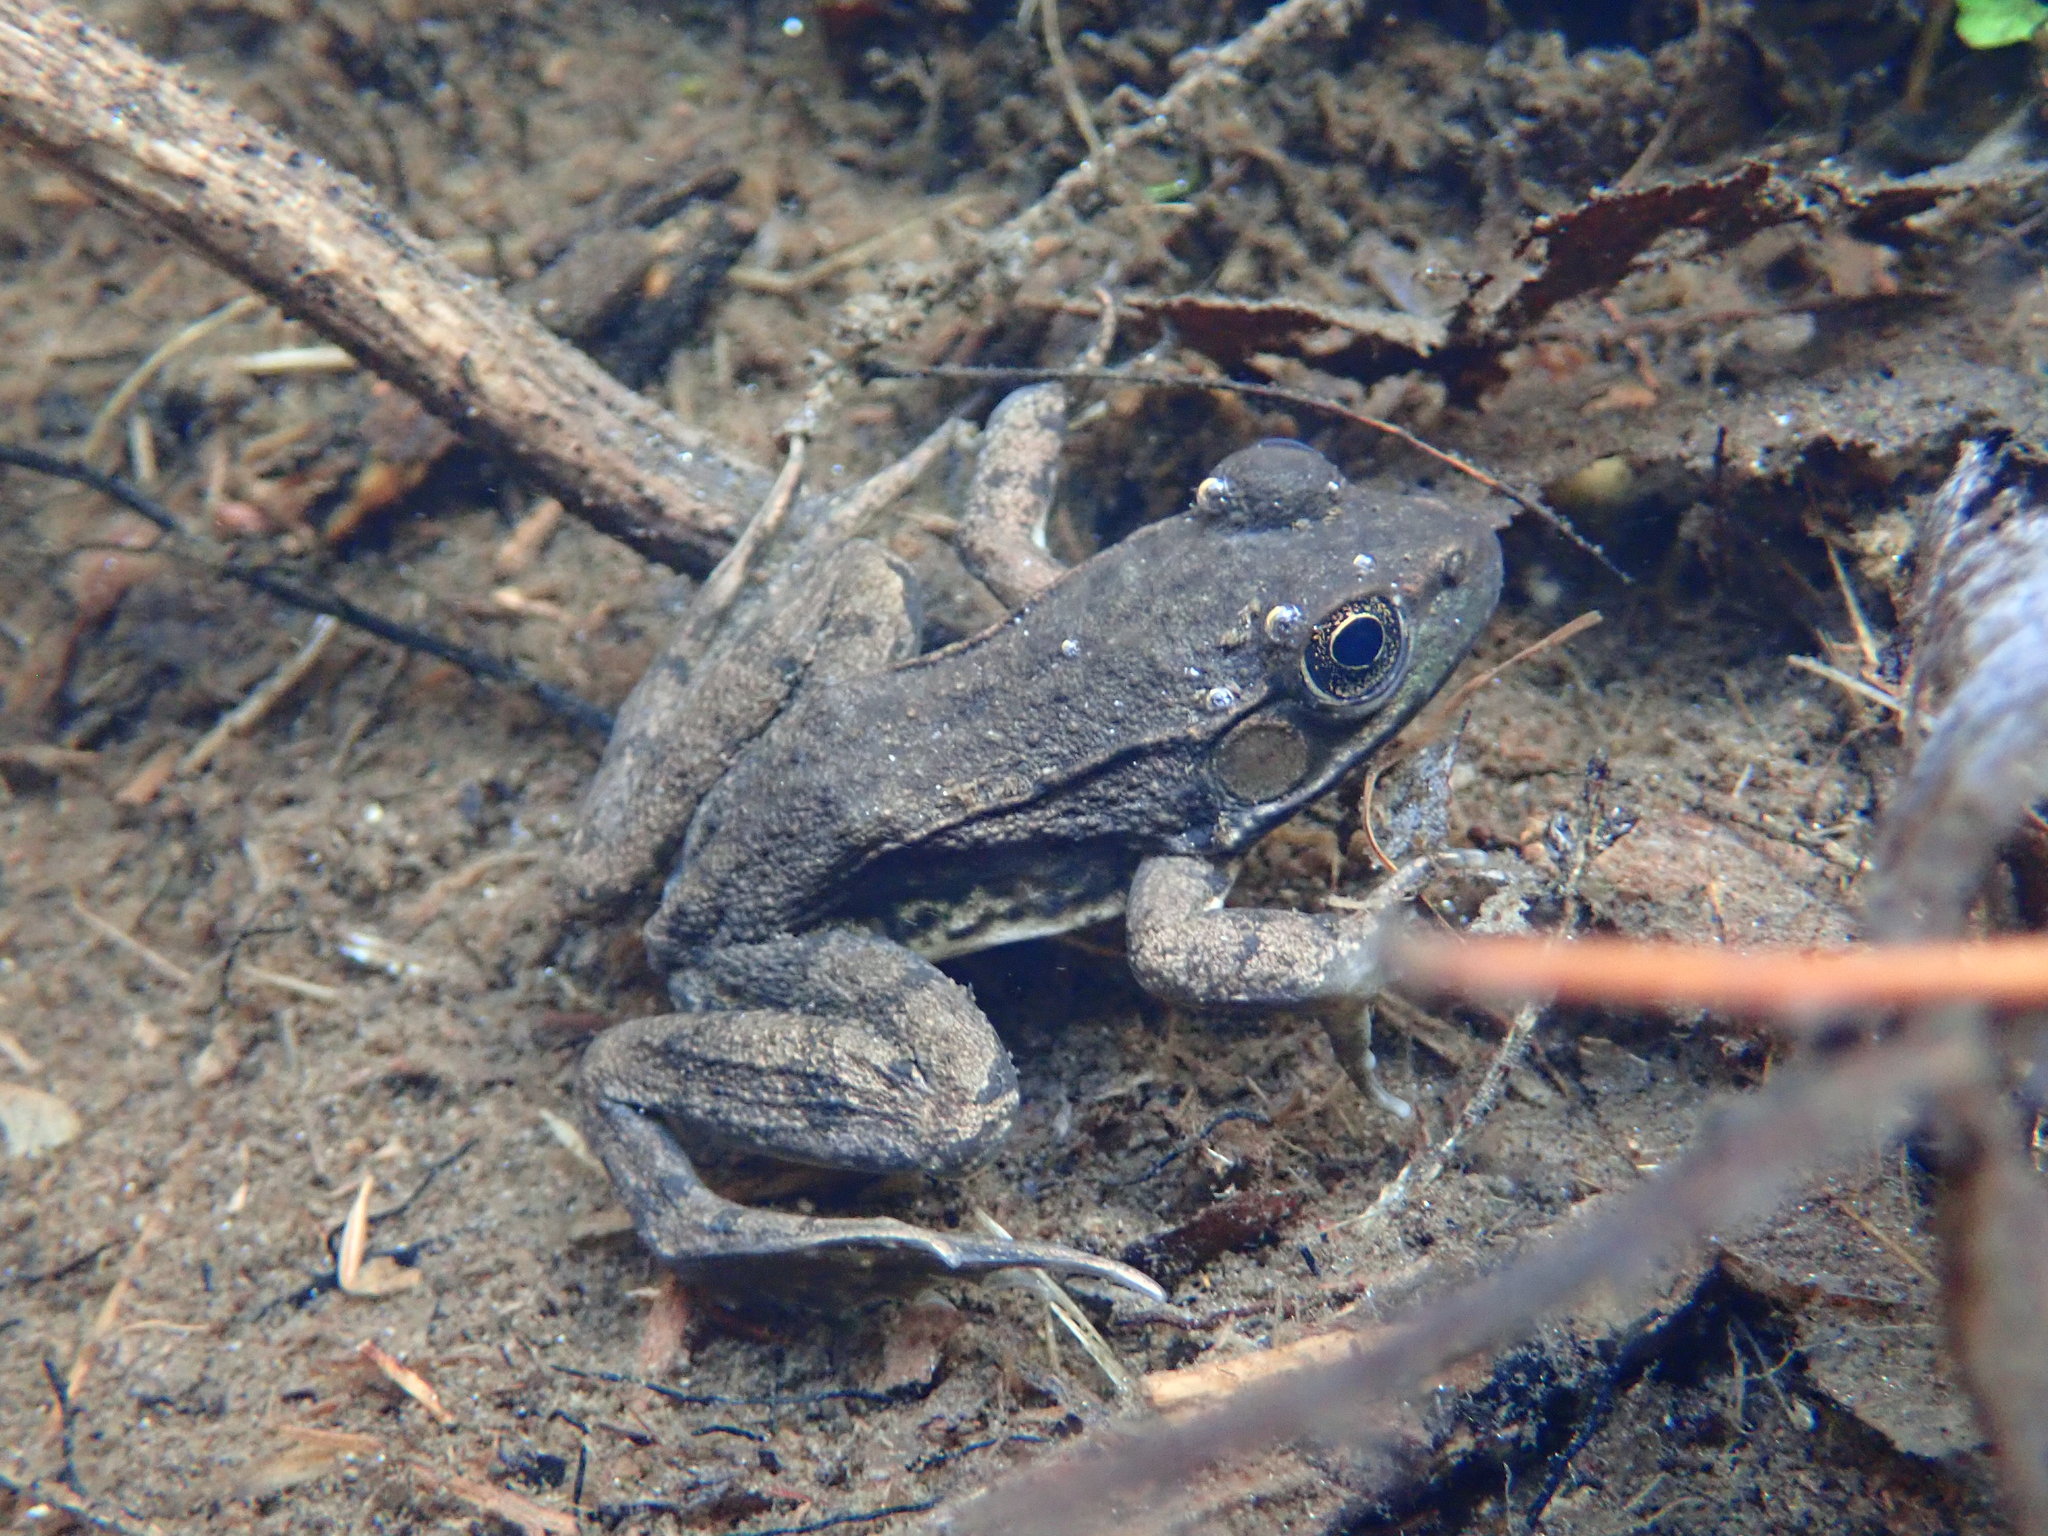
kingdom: Animalia
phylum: Chordata
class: Amphibia
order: Anura
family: Ranidae
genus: Lithobates
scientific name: Lithobates clamitans
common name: Green frog
